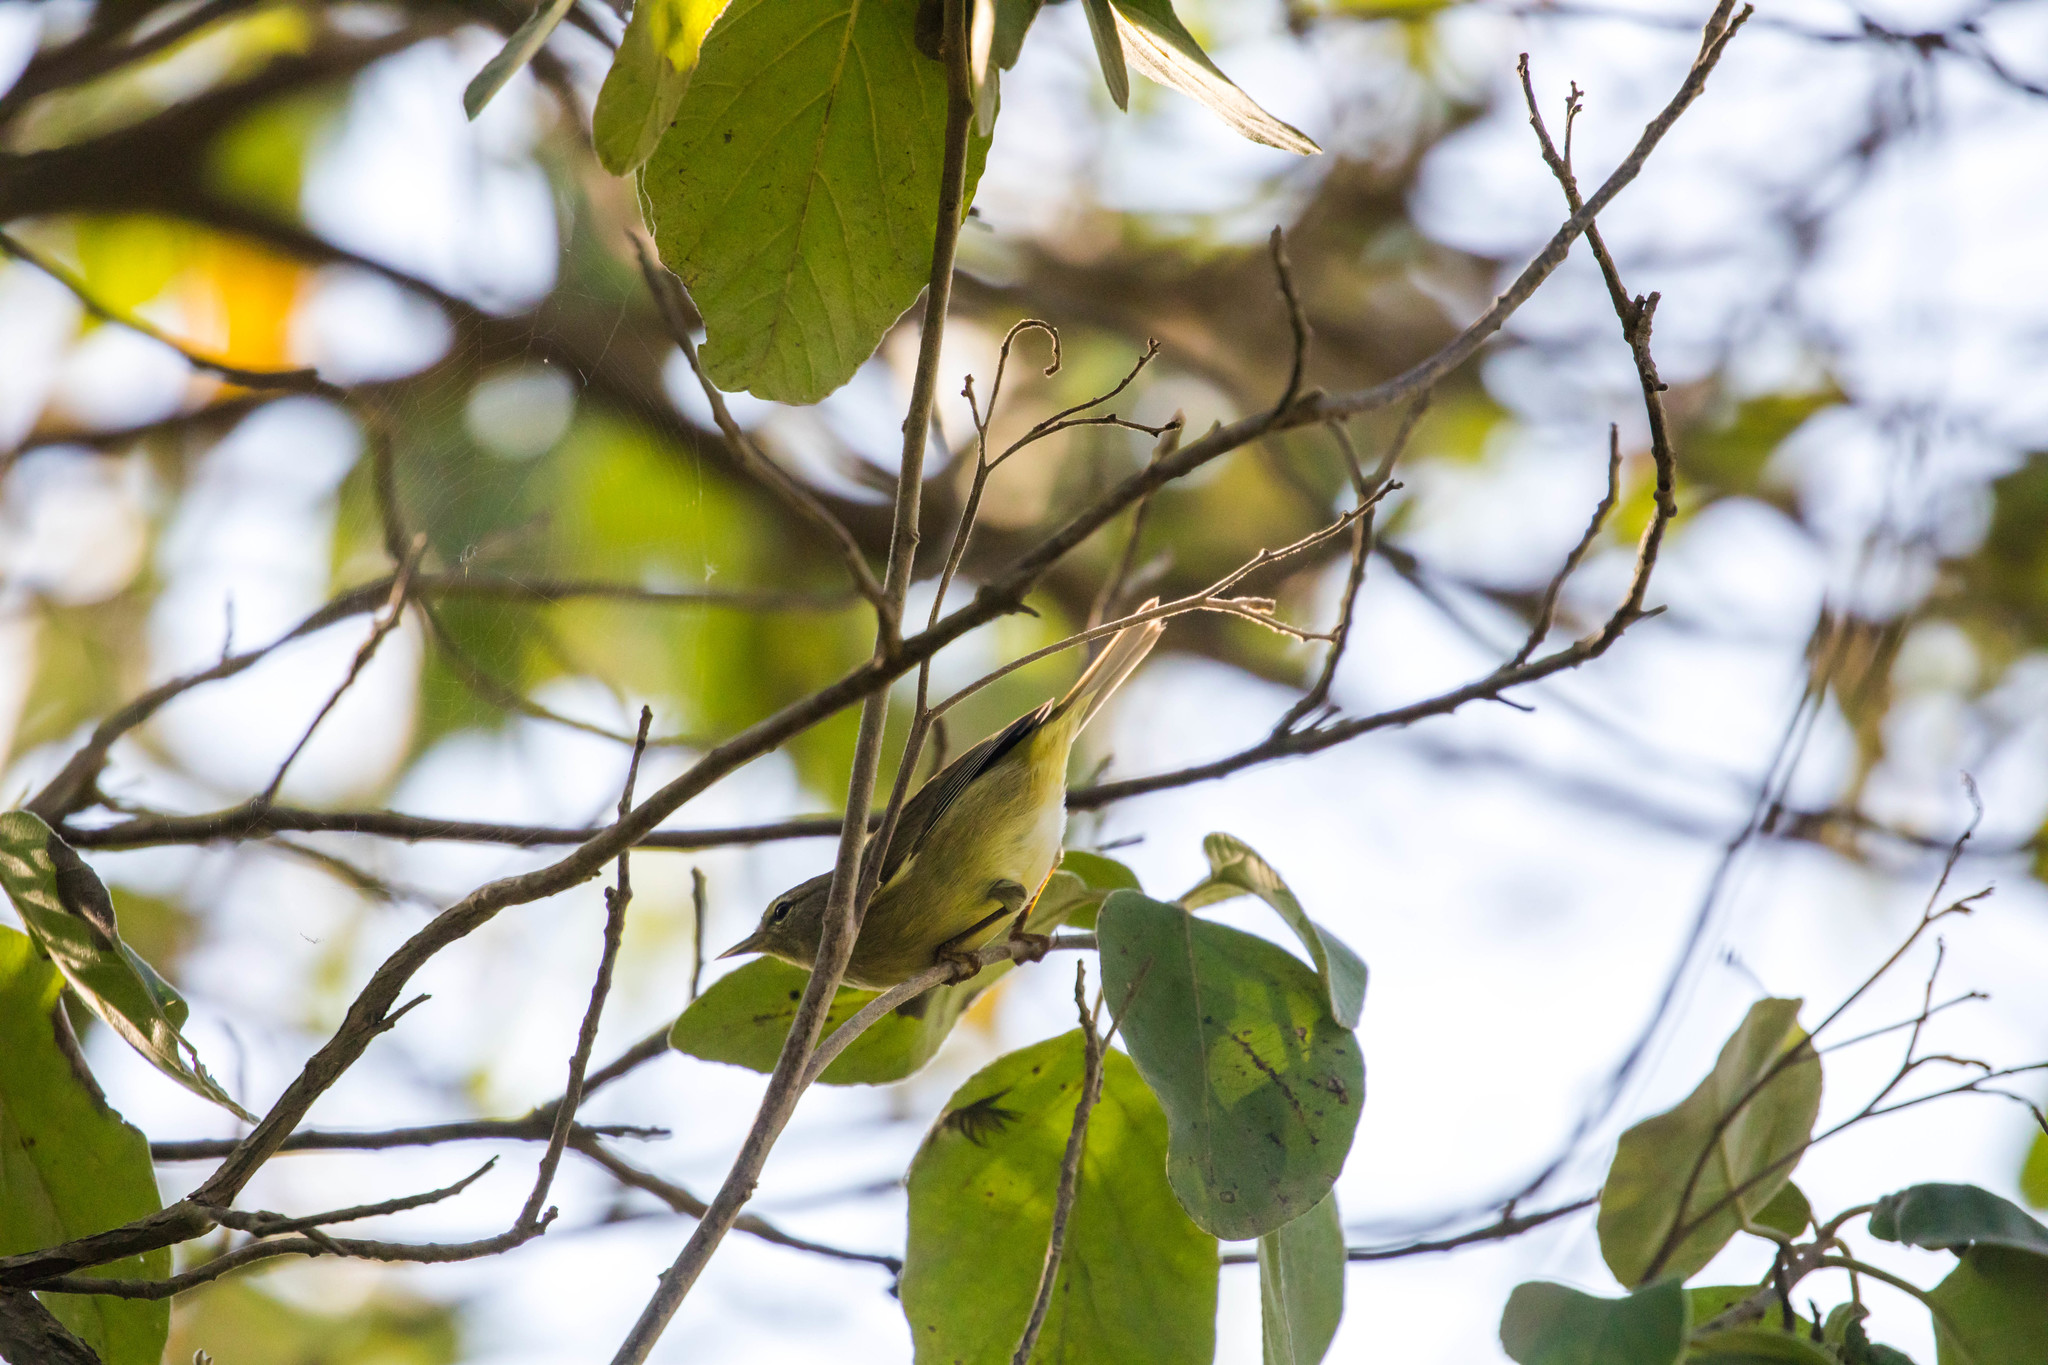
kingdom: Animalia
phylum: Chordata
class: Aves
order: Passeriformes
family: Parulidae
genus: Leiothlypis
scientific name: Leiothlypis celata
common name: Orange-crowned warbler
